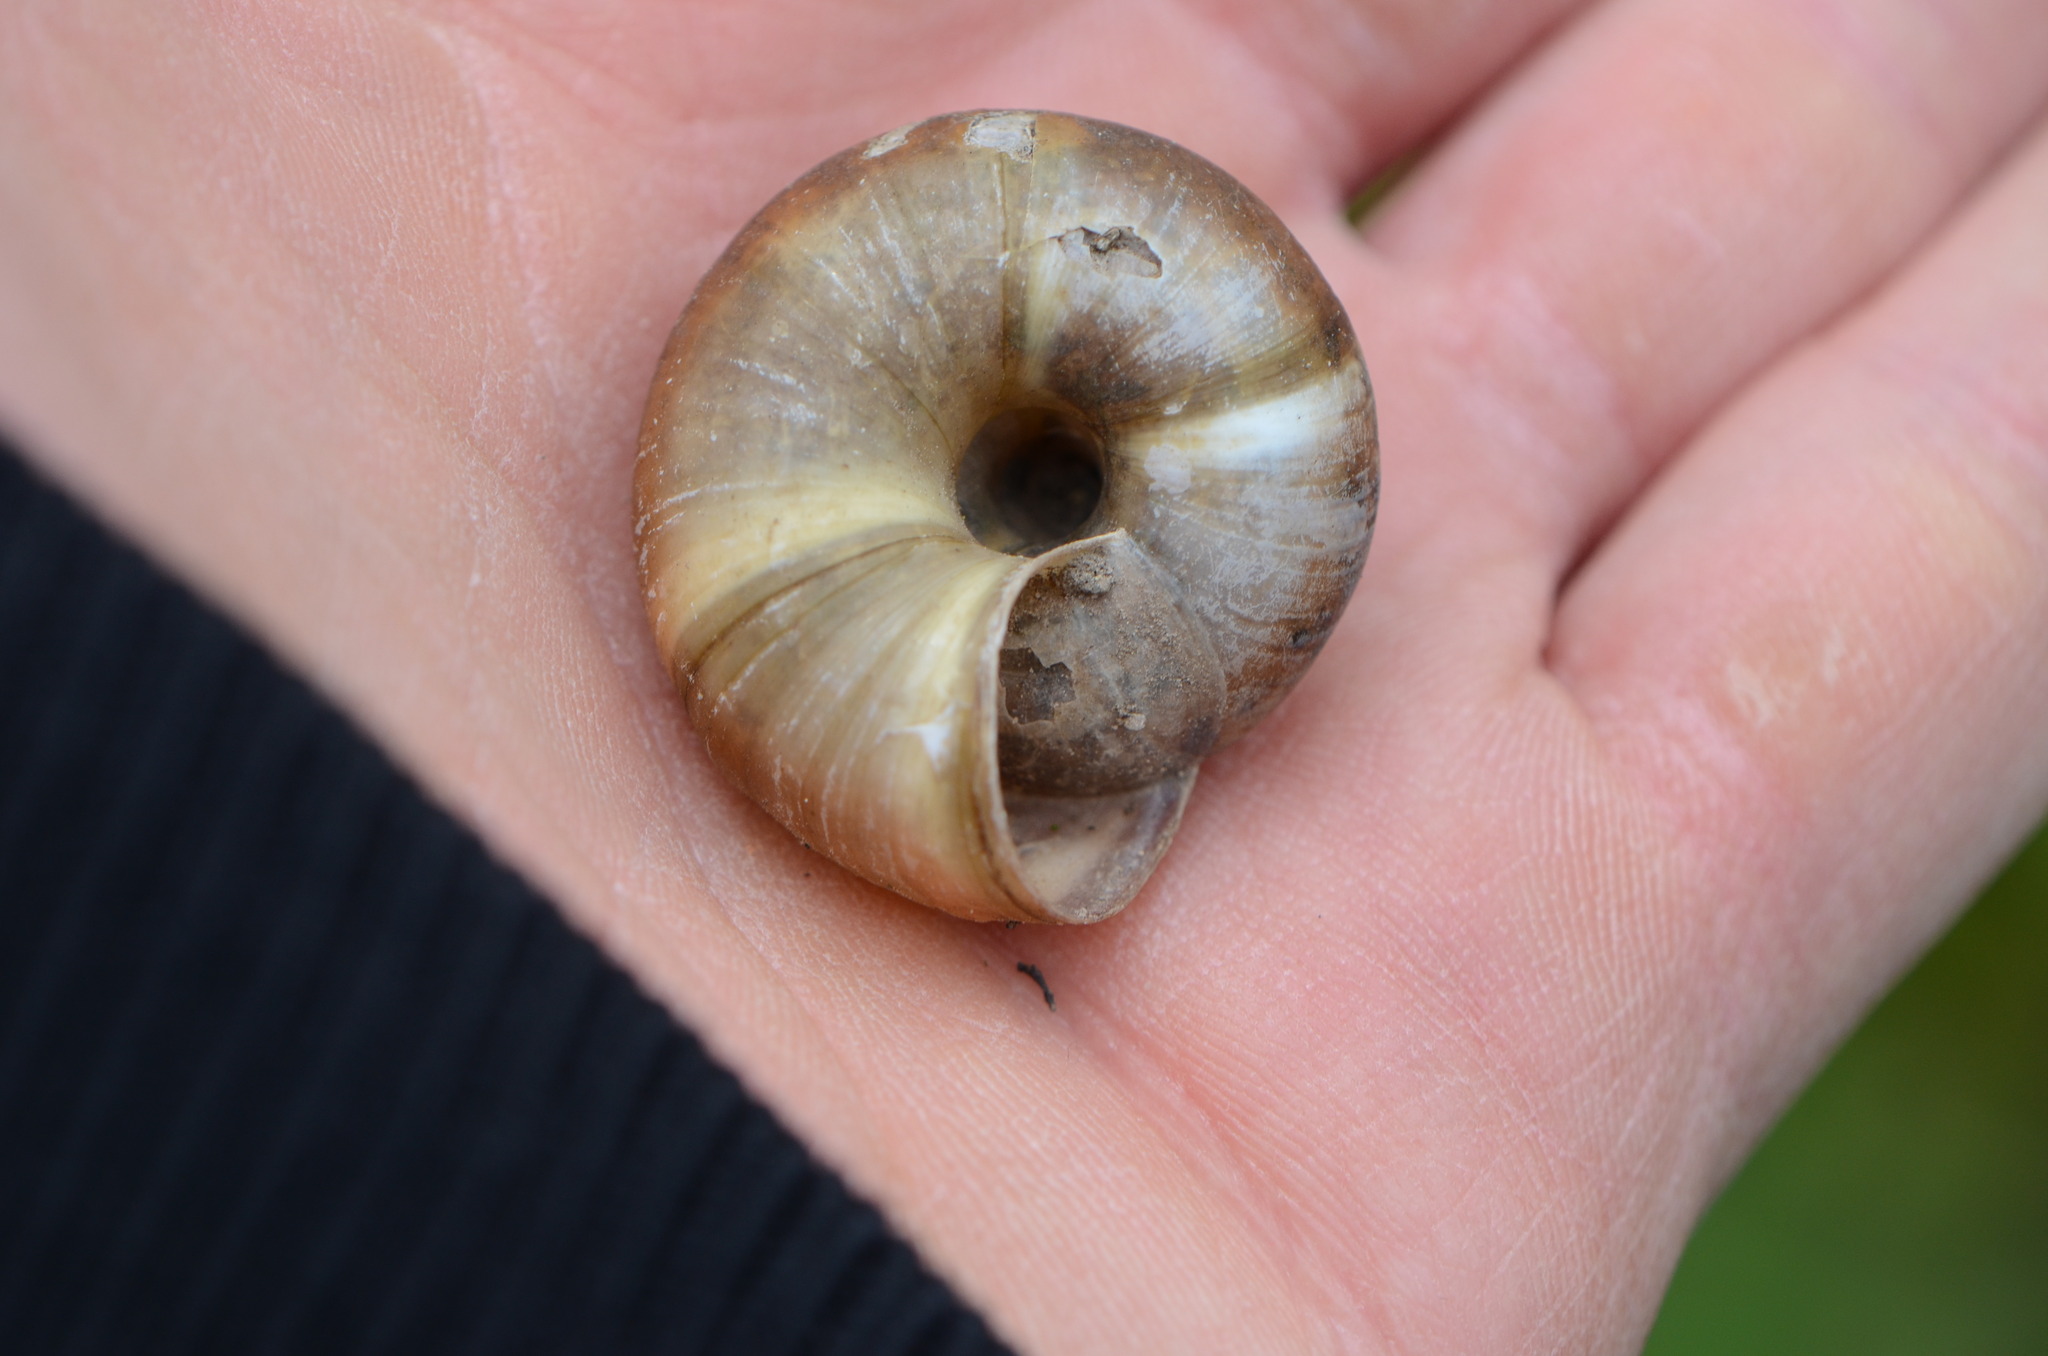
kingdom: Animalia
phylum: Mollusca
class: Gastropoda
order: Stylommatophora
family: Zonitidae
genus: Aegopis
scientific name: Aegopis verticillus
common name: Giant glass snail
